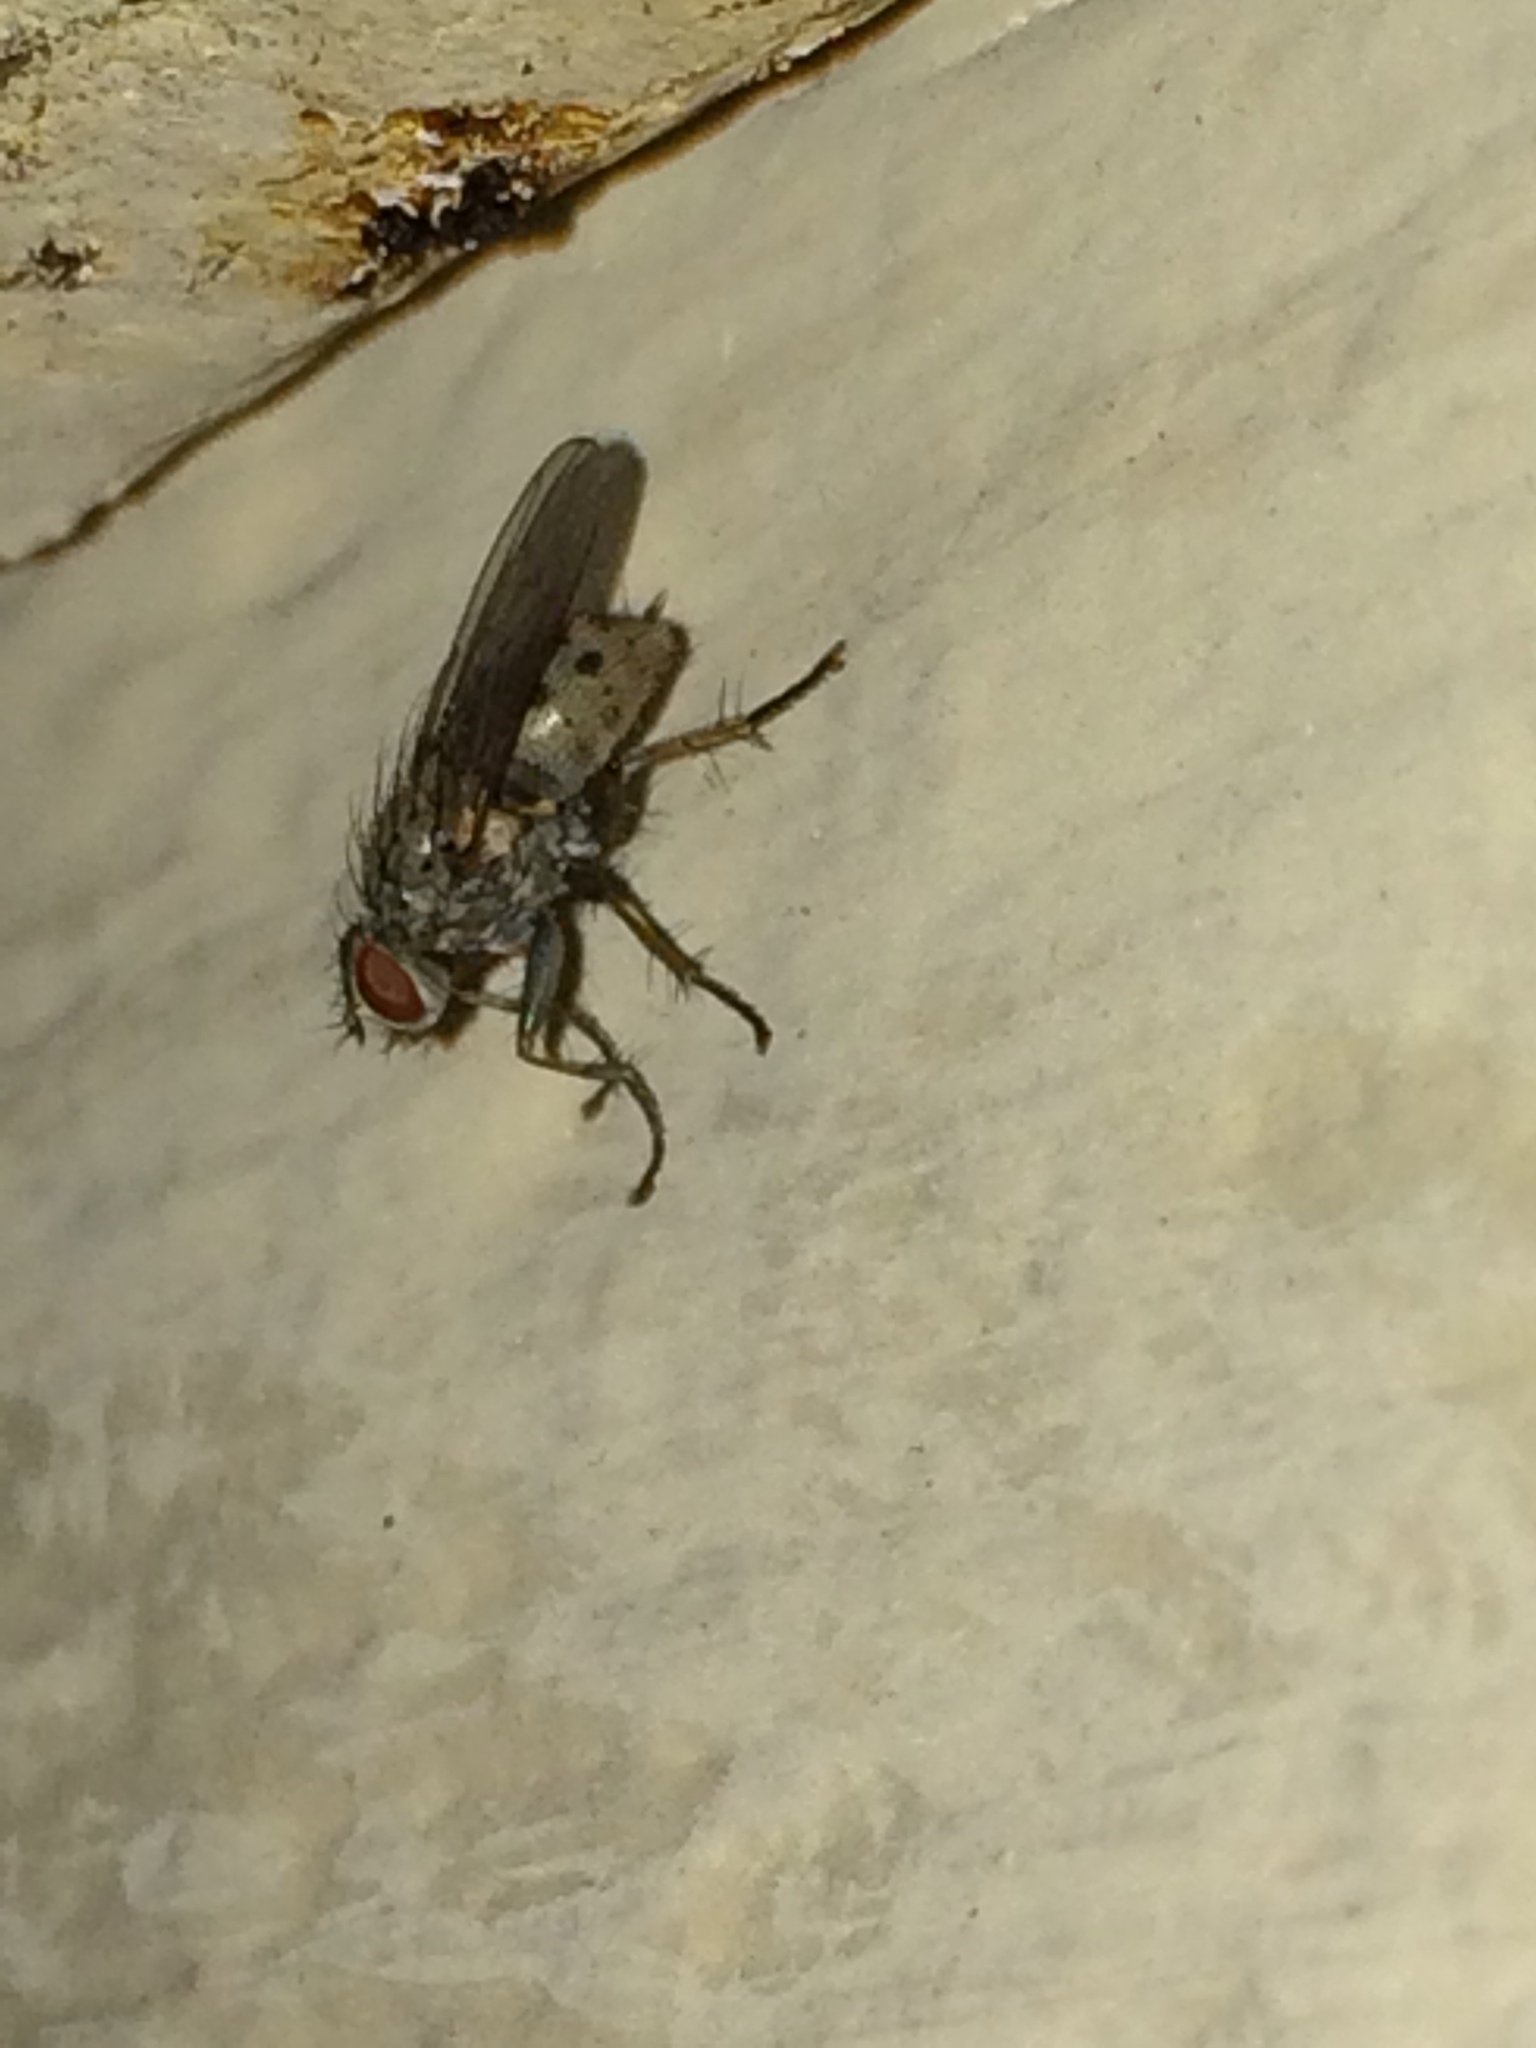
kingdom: Animalia
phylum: Arthropoda
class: Insecta
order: Diptera
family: Muscidae
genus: Coenosia
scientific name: Coenosia tigrina
